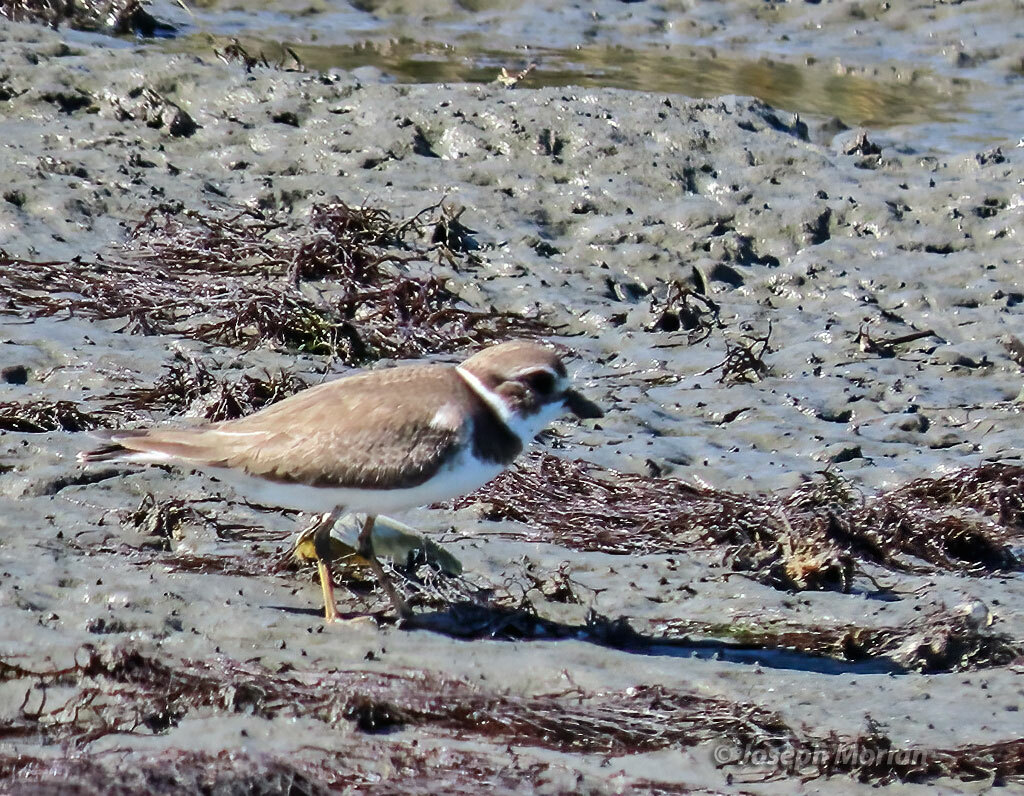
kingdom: Animalia
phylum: Chordata
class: Aves
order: Charadriiformes
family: Charadriidae
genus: Charadrius
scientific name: Charadrius semipalmatus
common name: Semipalmated plover
